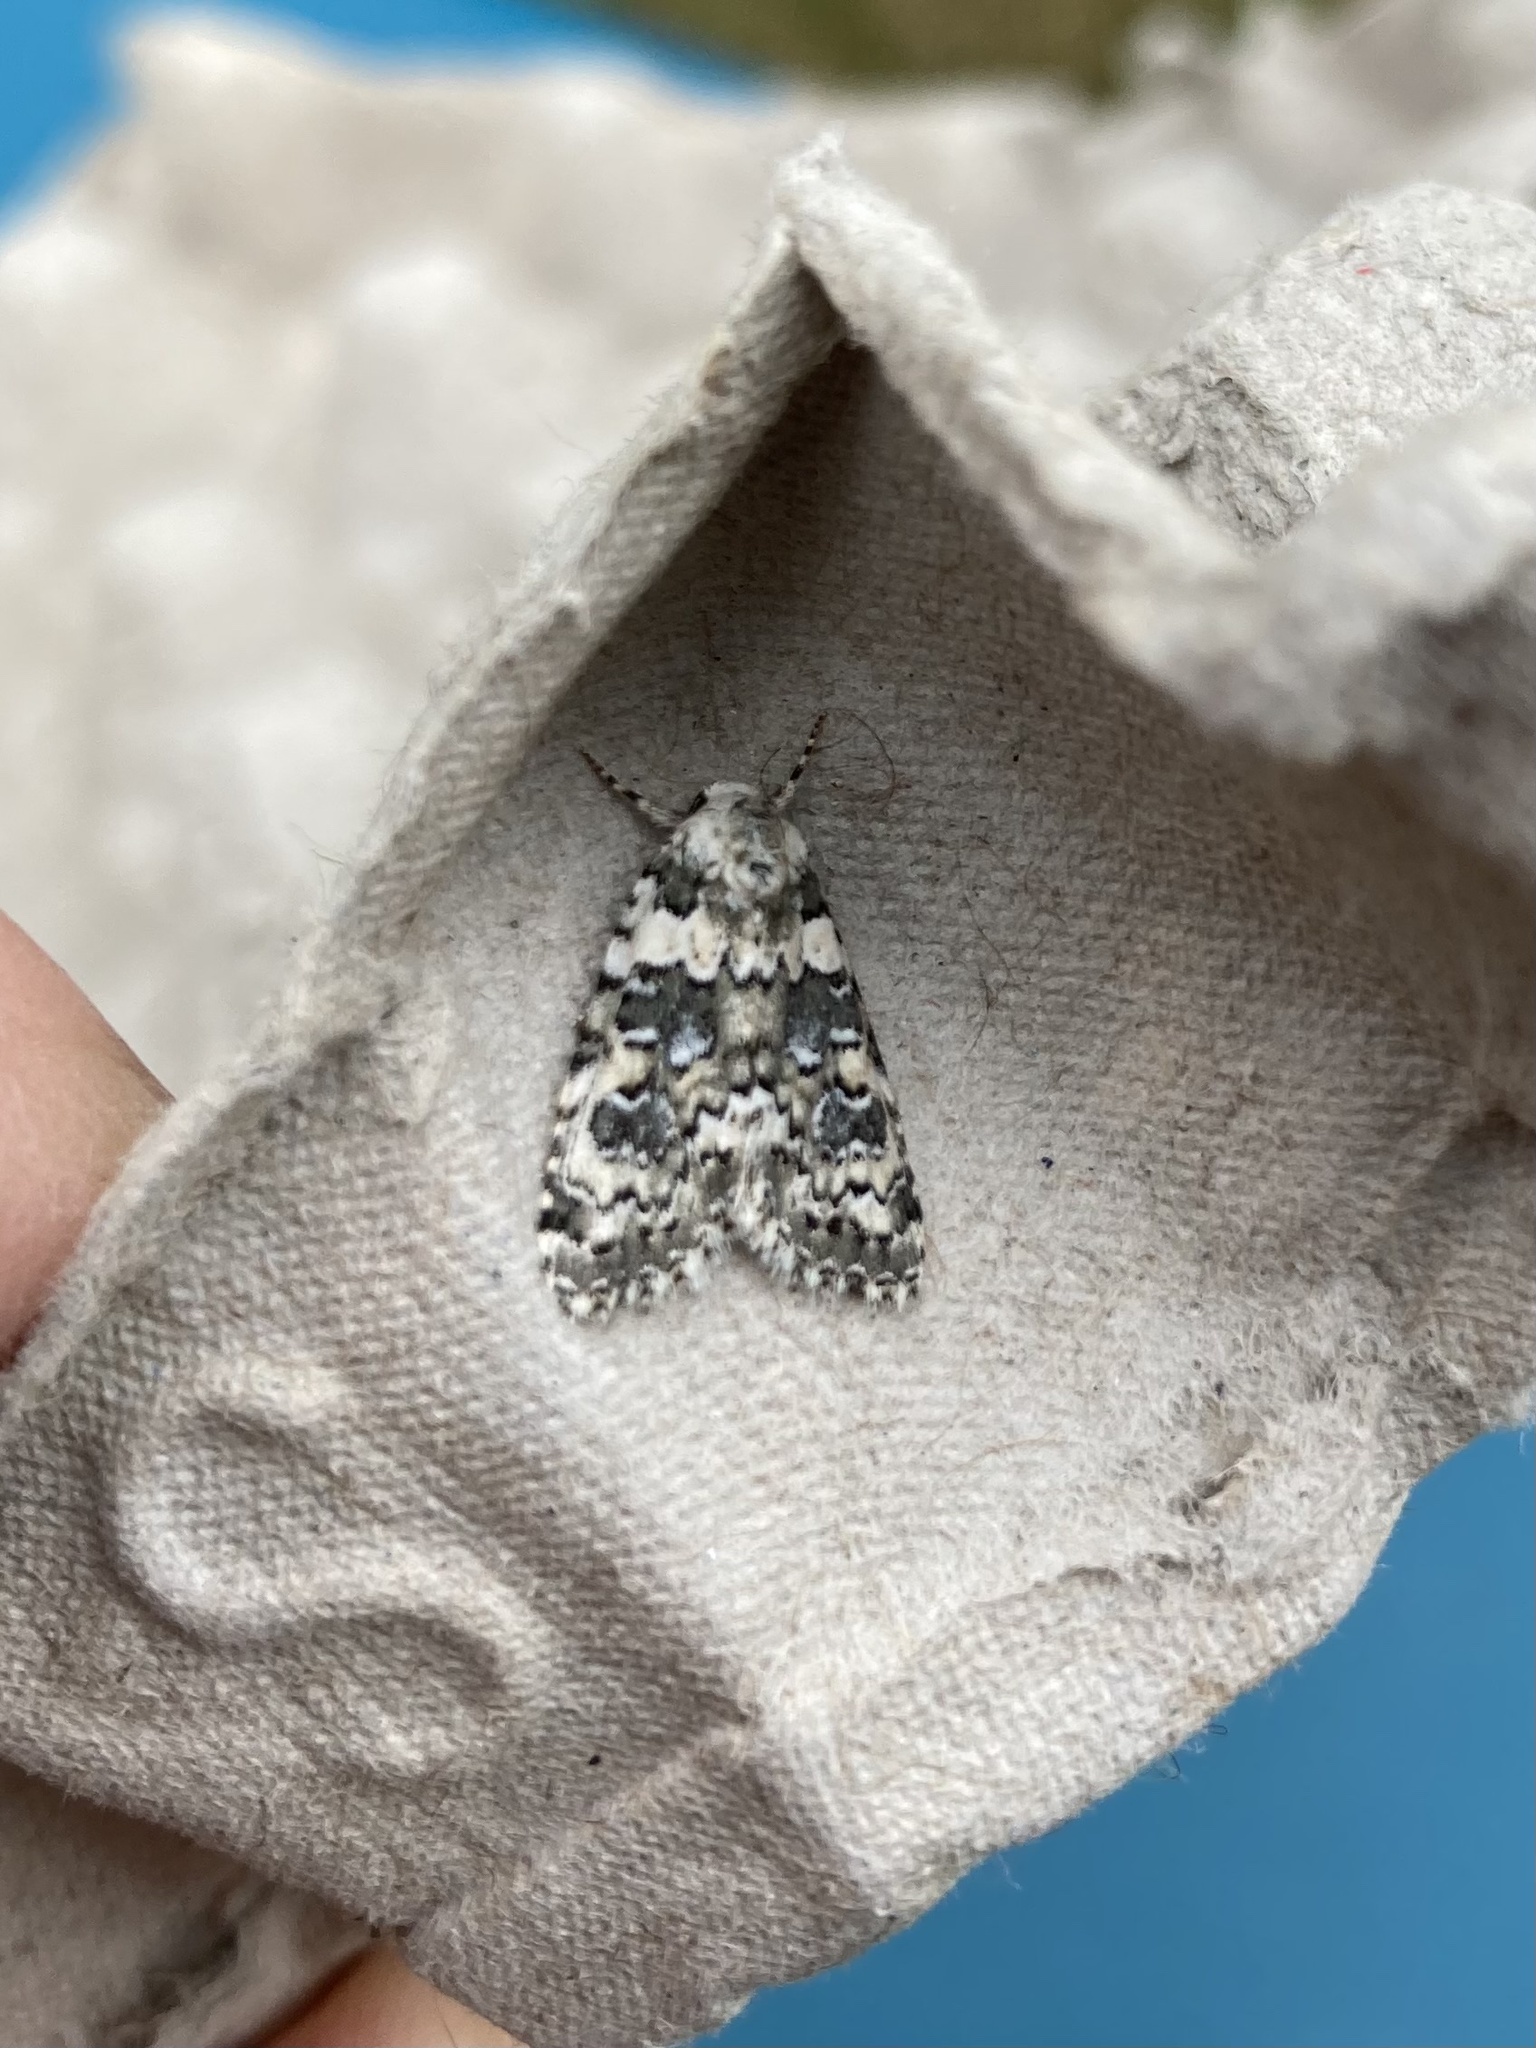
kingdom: Animalia
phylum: Arthropoda
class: Insecta
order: Lepidoptera
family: Noctuidae
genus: Bryophila
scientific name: Bryophila domestica
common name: Marbled beauty
